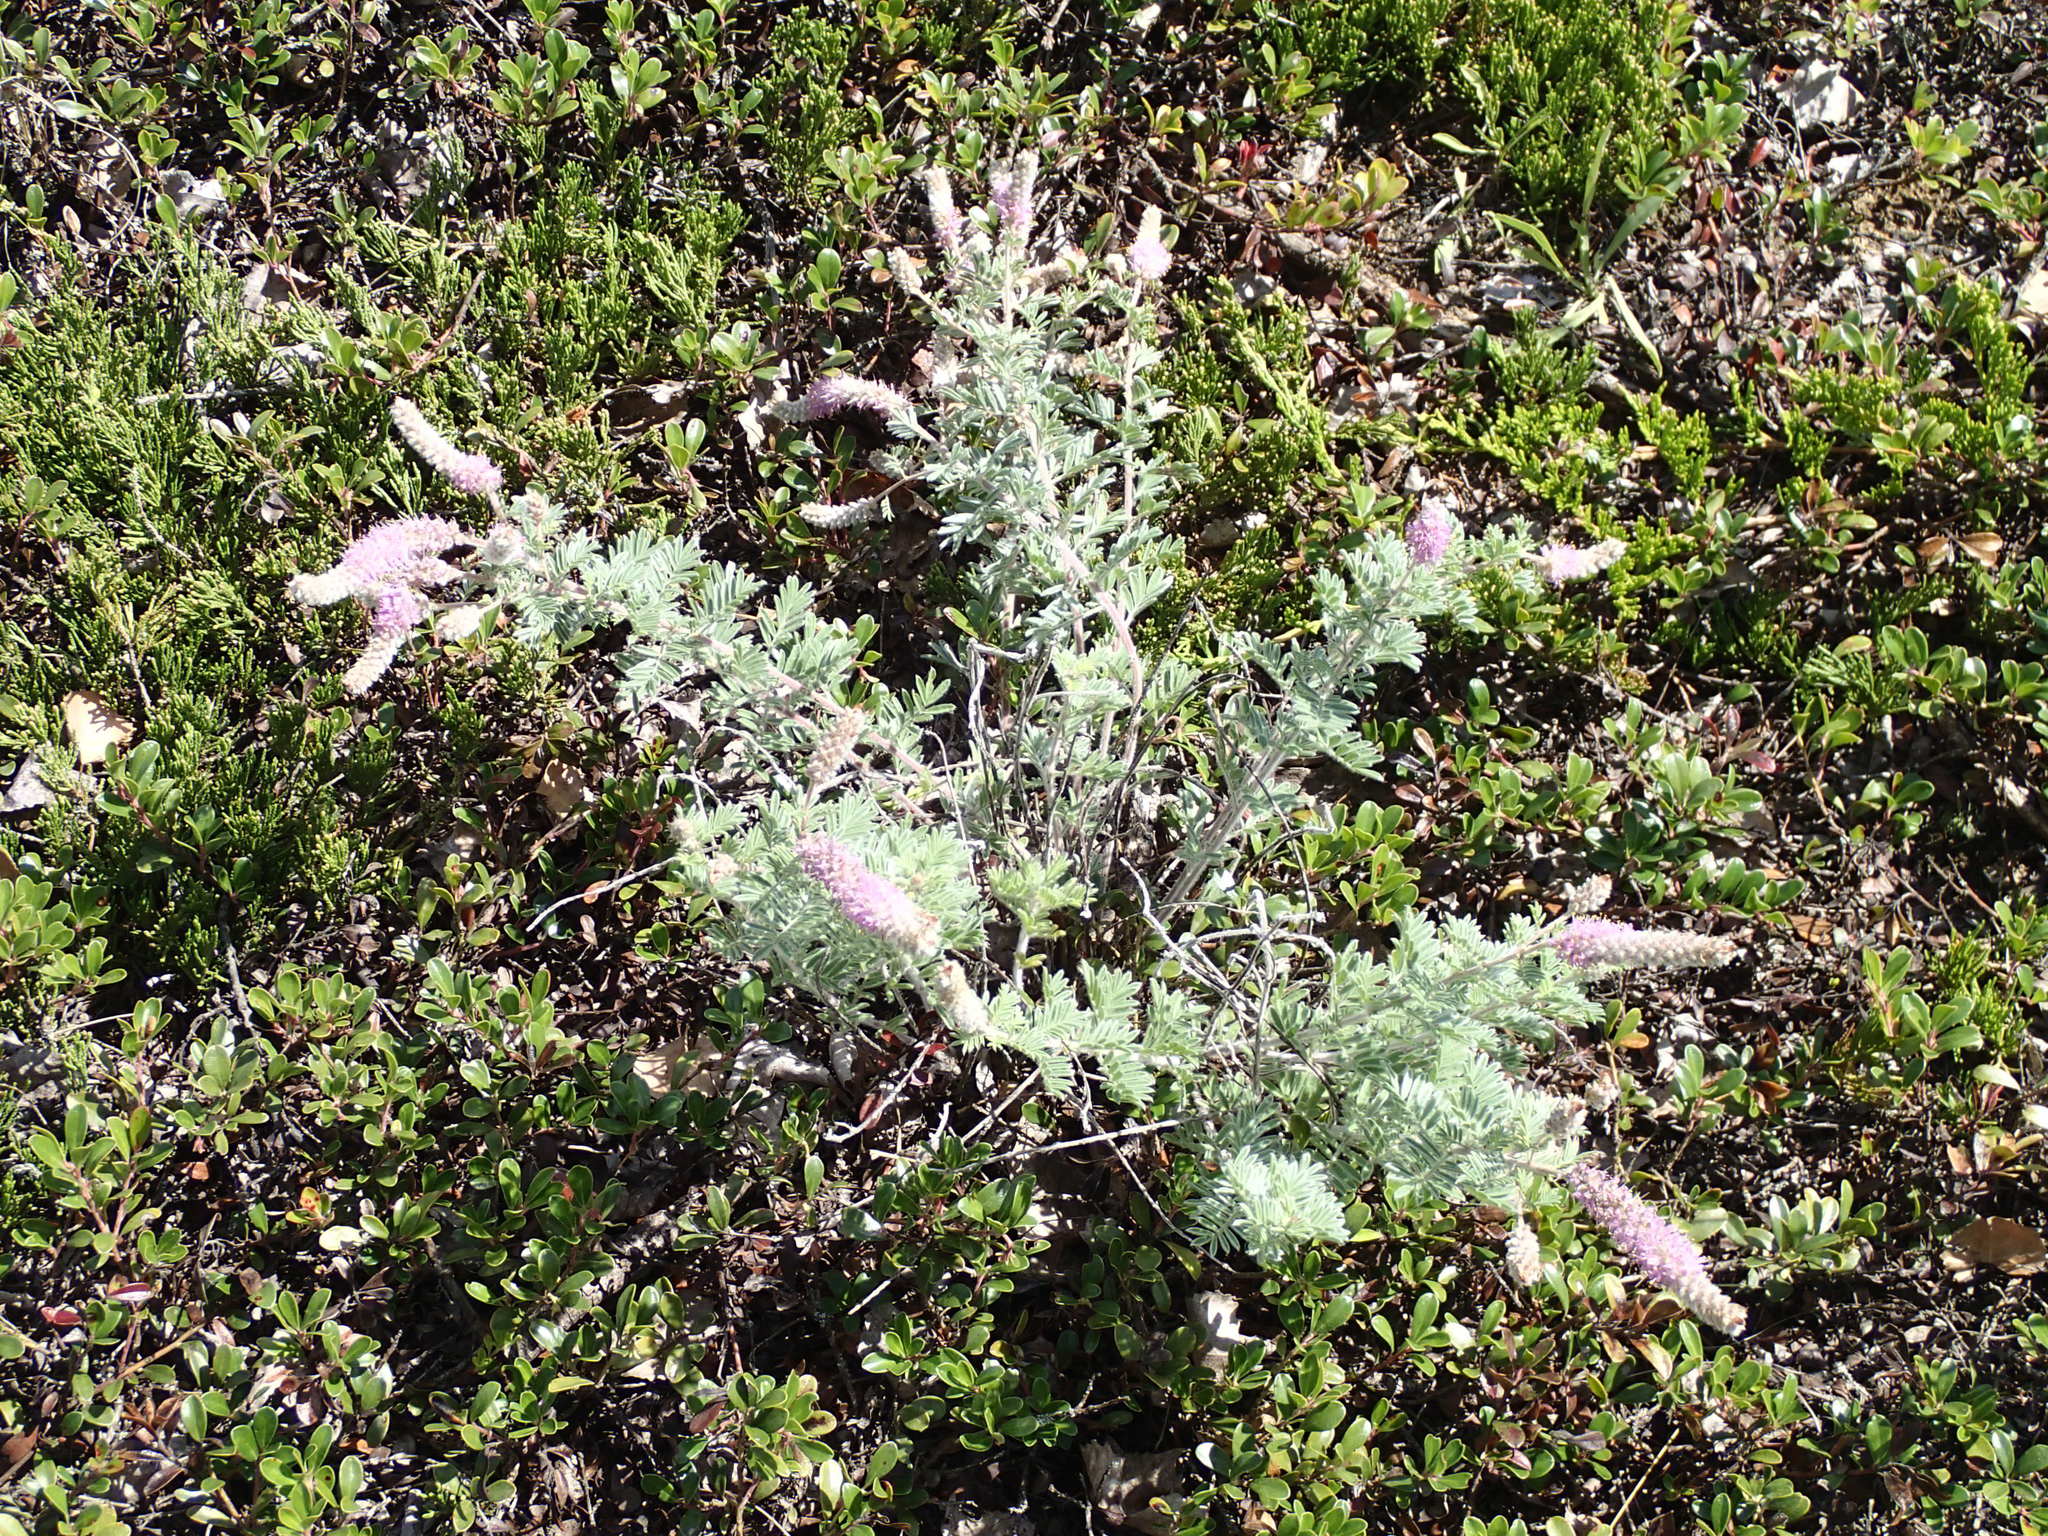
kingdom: Plantae
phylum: Tracheophyta
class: Magnoliopsida
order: Fabales
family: Fabaceae
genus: Dalea
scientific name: Dalea villosa
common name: Silky prairie-clover
